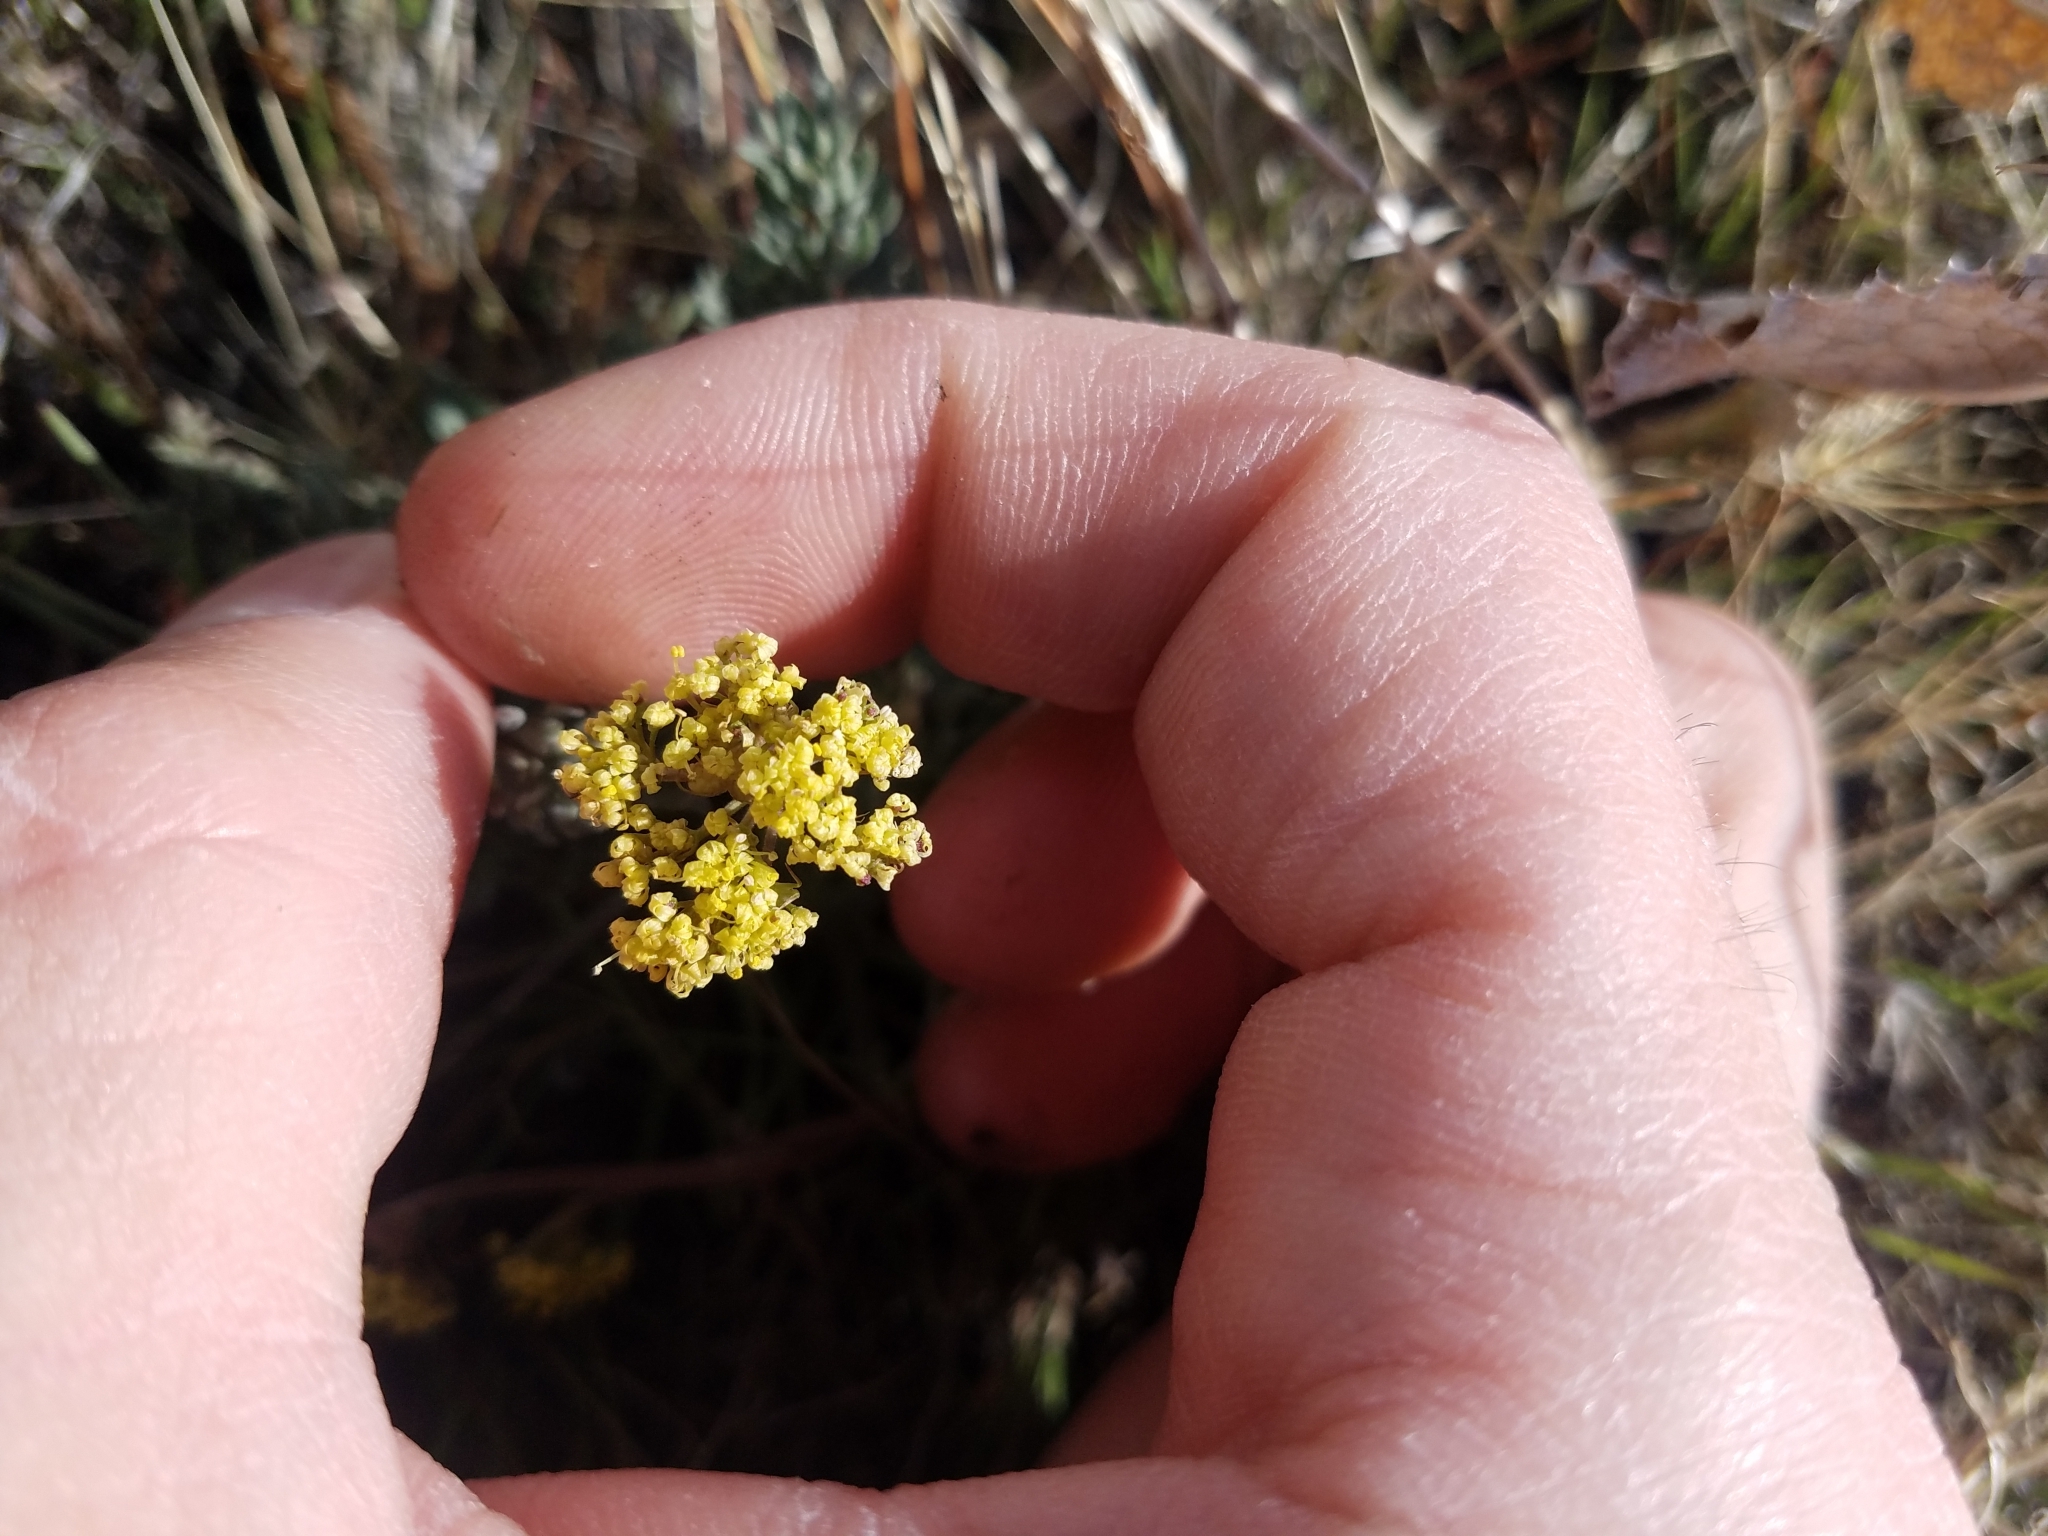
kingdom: Plantae
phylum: Tracheophyta
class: Magnoliopsida
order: Apiales
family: Apiaceae
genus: Lomatium
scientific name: Lomatium austiniae
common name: Plumas lomatium
